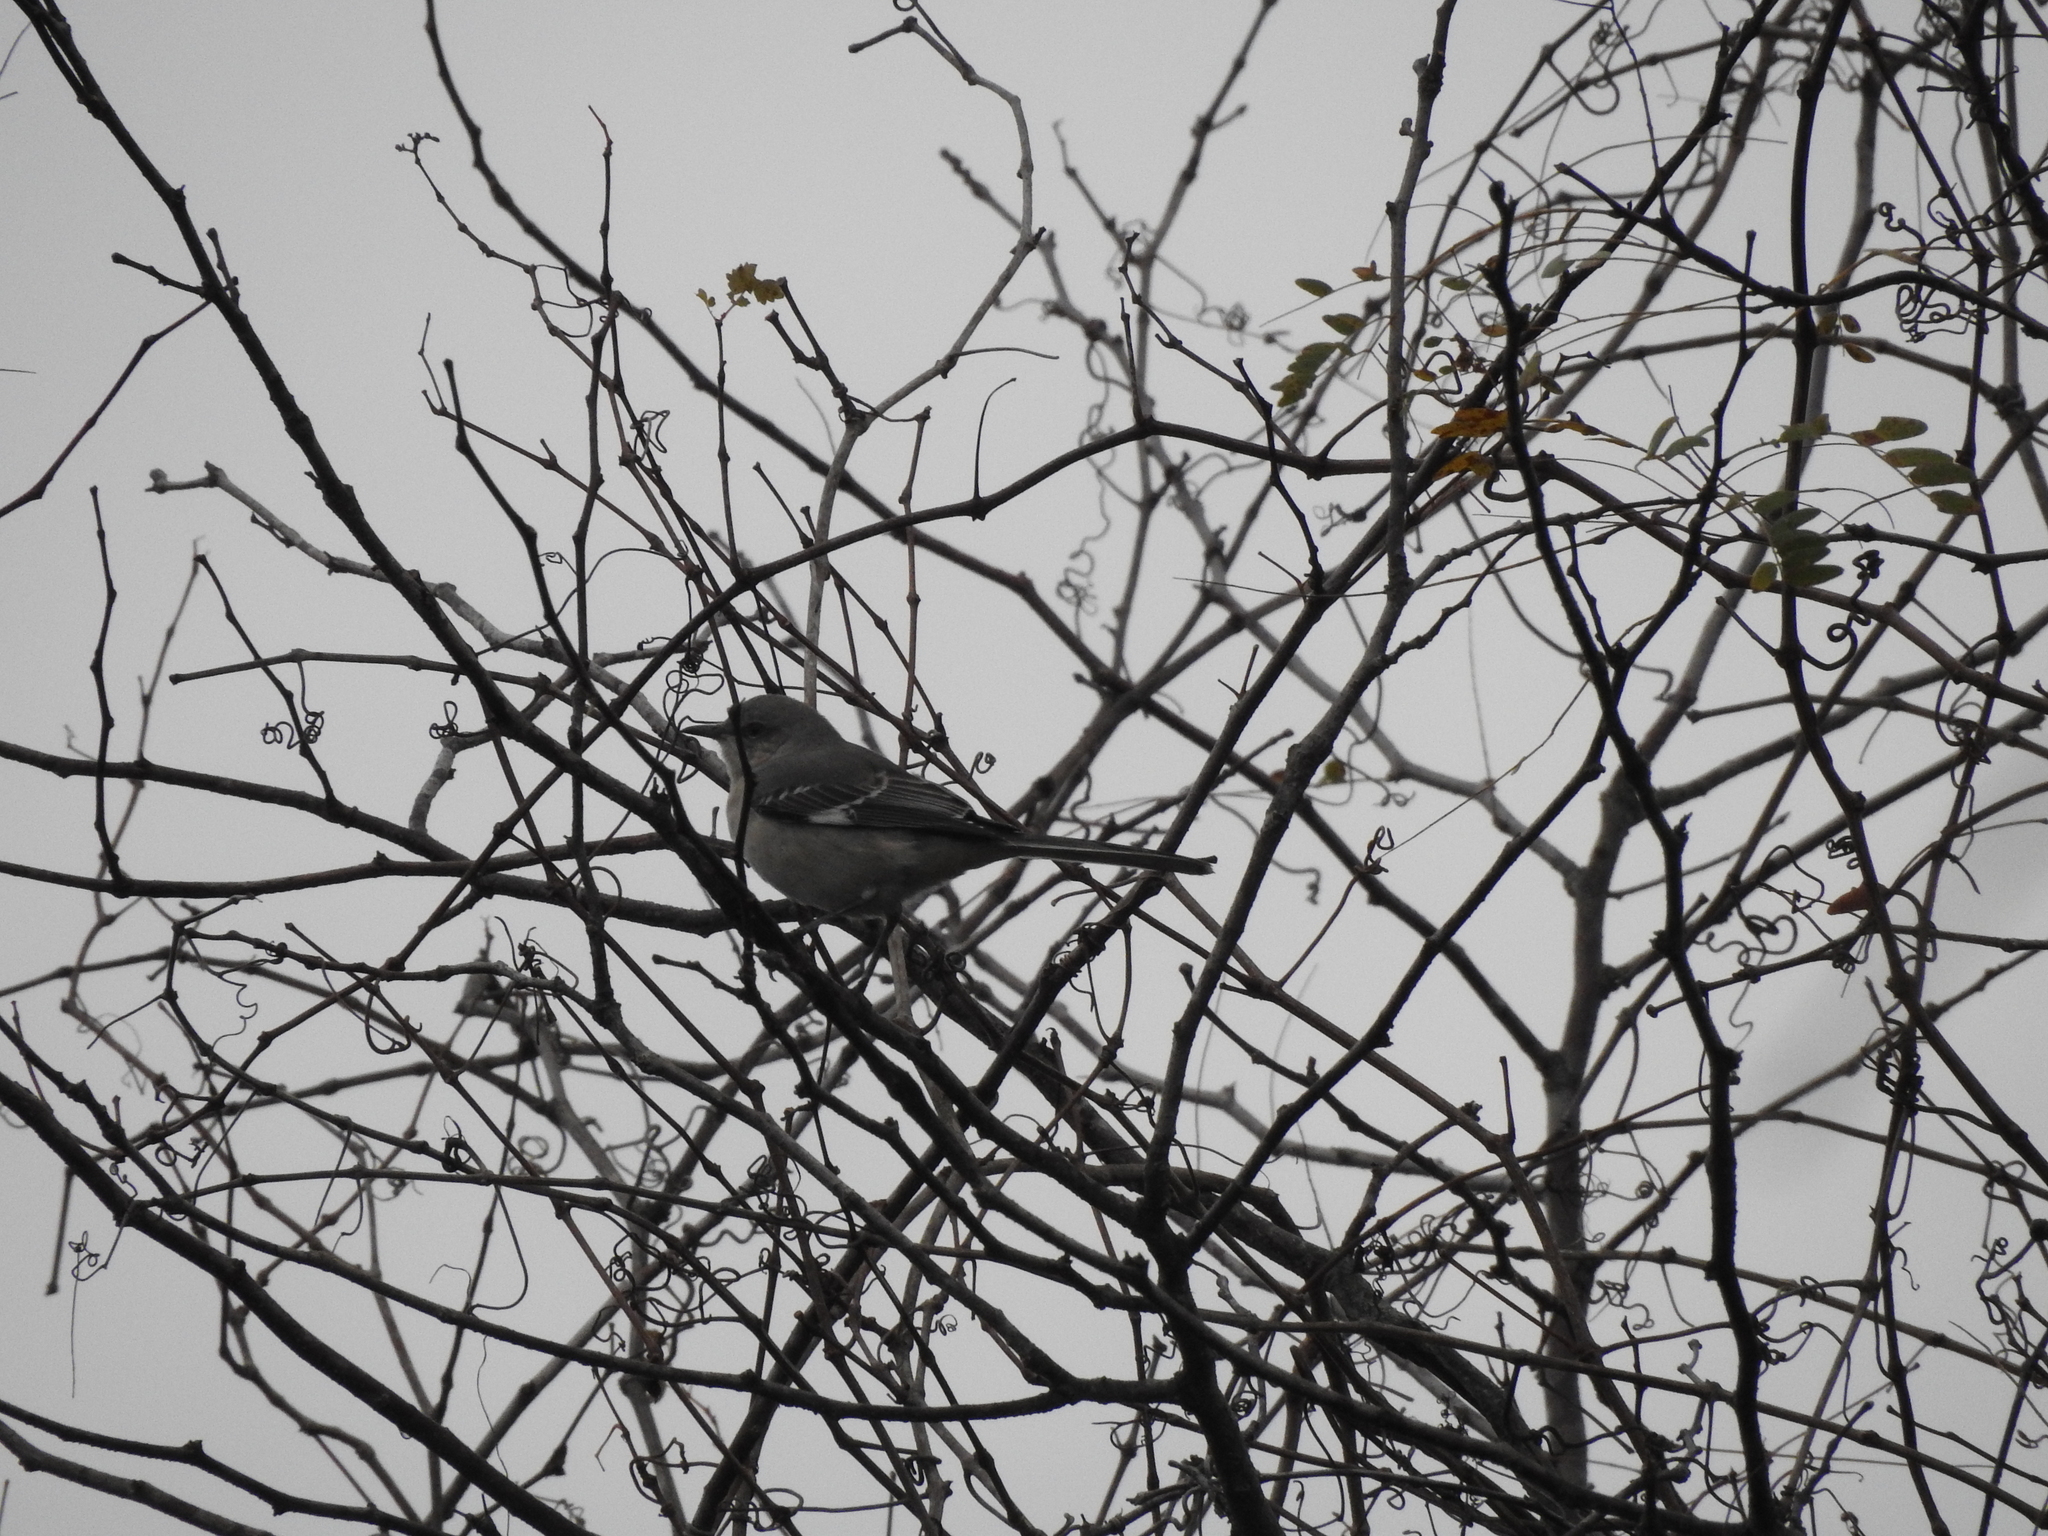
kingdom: Animalia
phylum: Chordata
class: Aves
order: Passeriformes
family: Mimidae
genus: Mimus
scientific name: Mimus polyglottos
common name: Northern mockingbird
